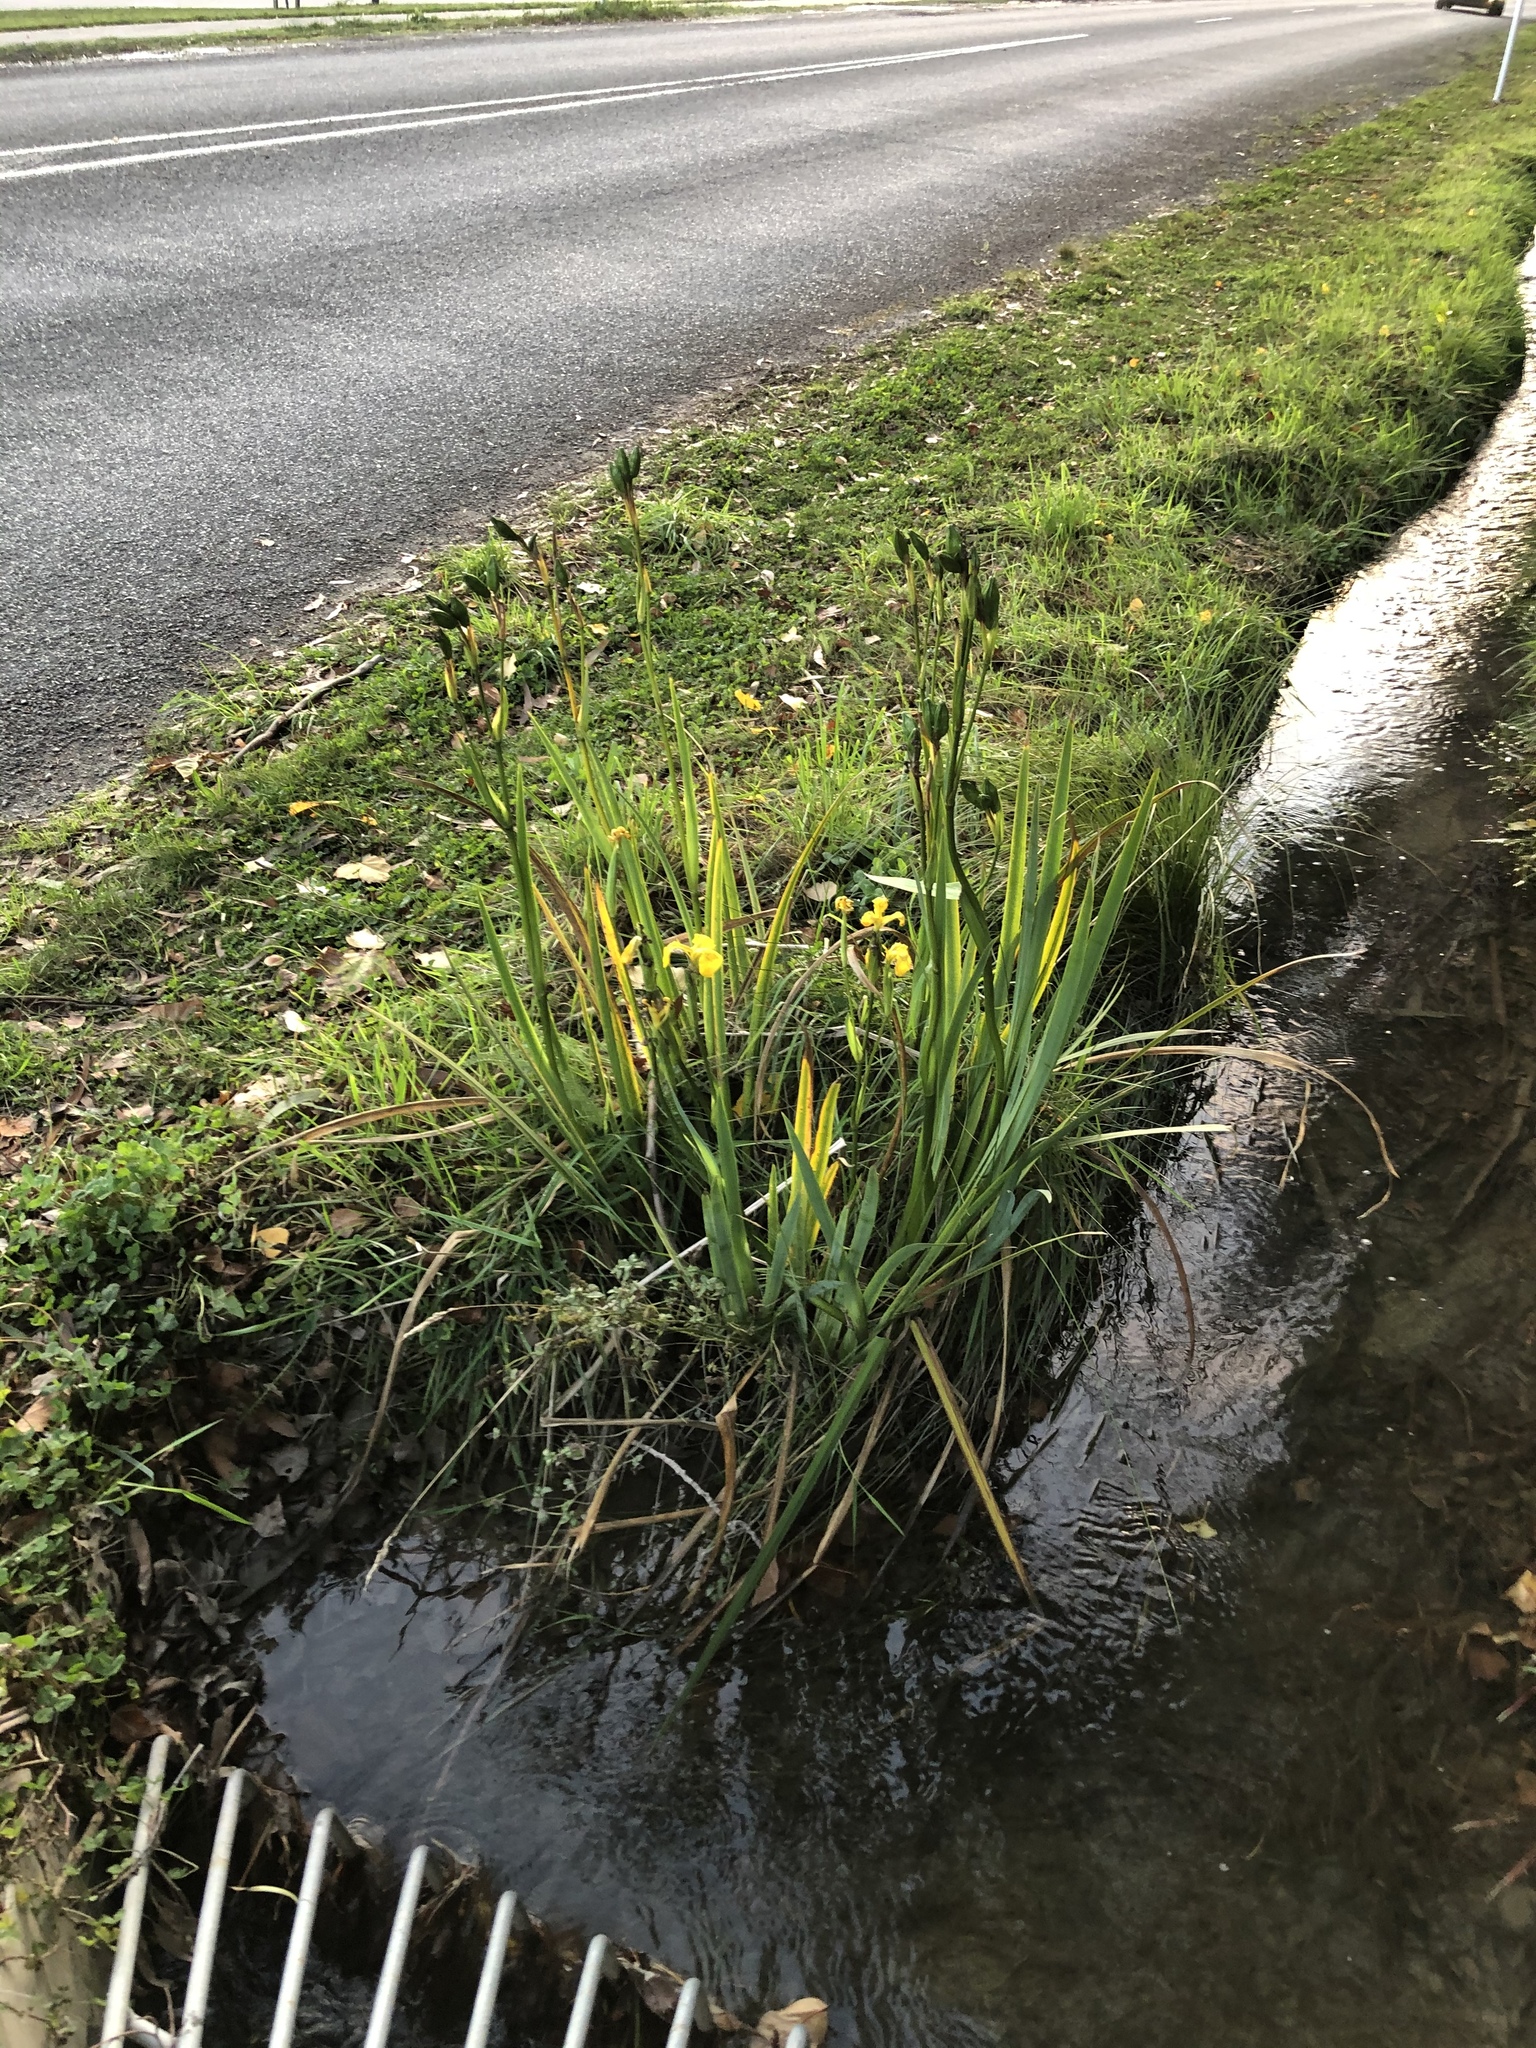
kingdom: Plantae
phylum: Tracheophyta
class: Liliopsida
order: Asparagales
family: Iridaceae
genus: Iris
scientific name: Iris pseudacorus
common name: Yellow flag
